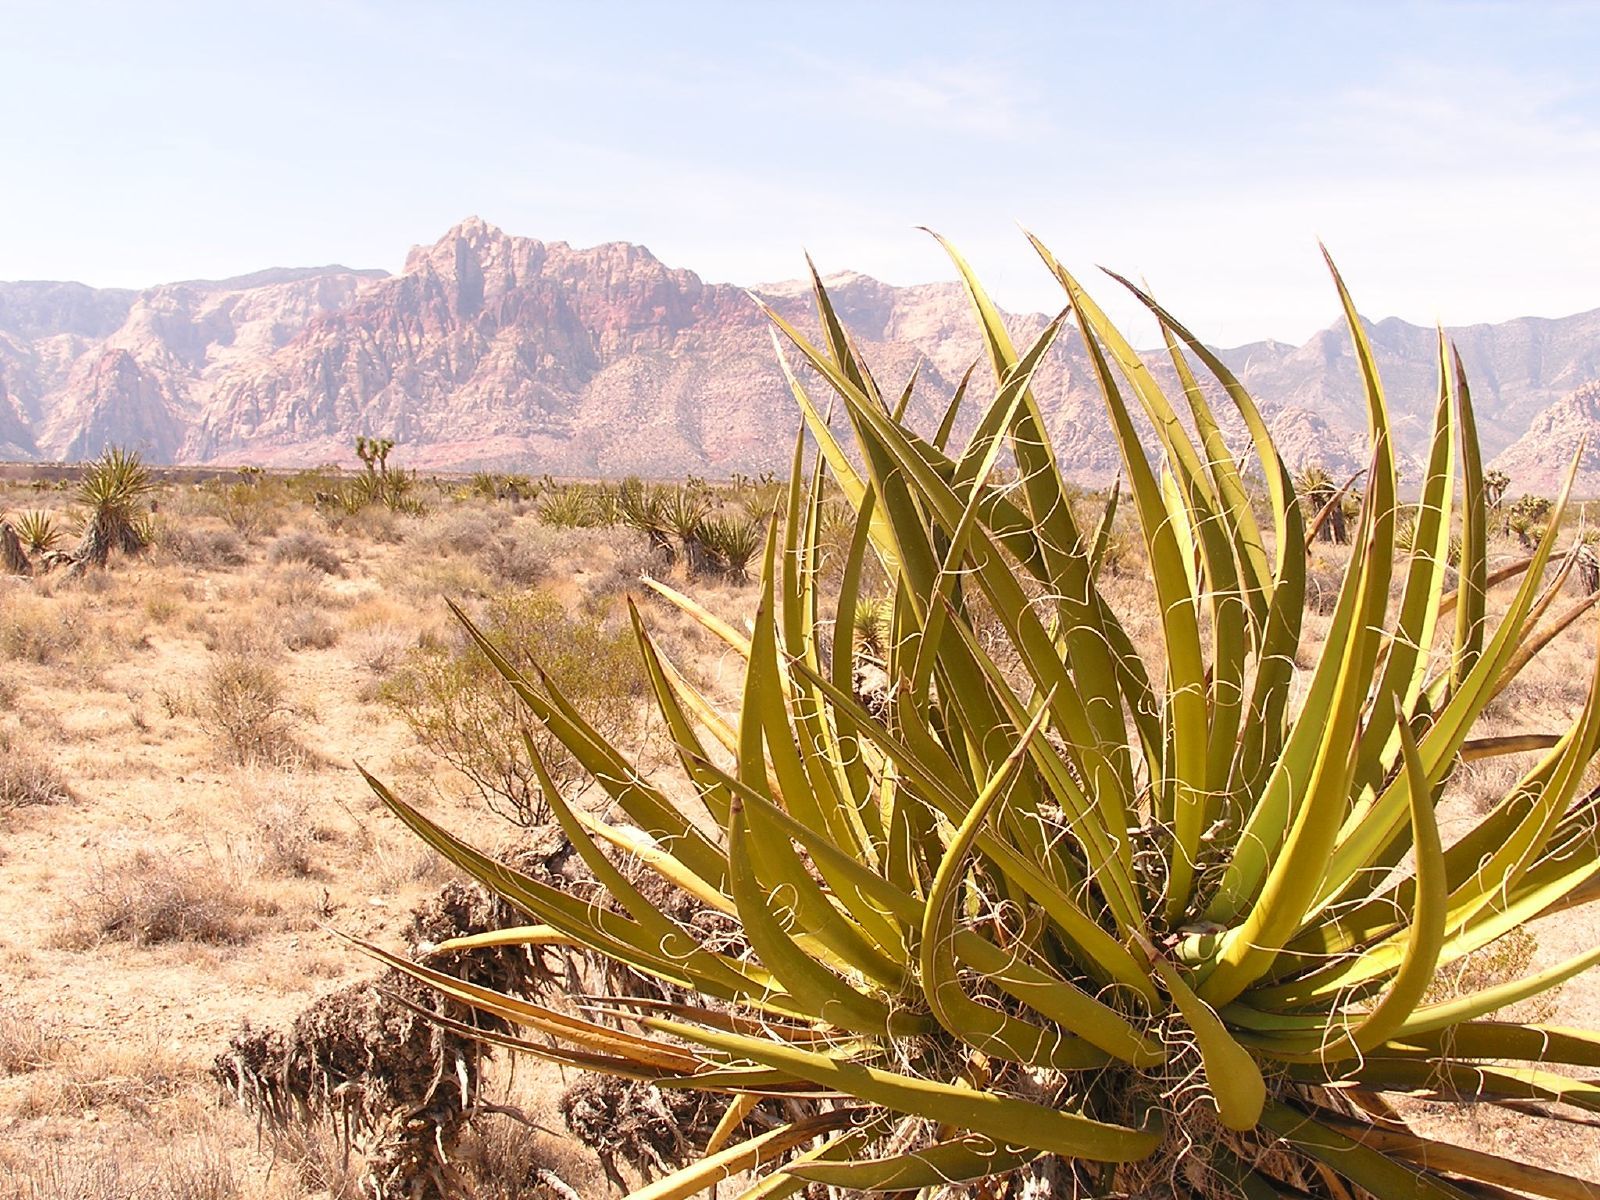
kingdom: Plantae
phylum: Tracheophyta
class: Liliopsida
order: Asparagales
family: Asparagaceae
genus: Yucca
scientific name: Yucca schidigera
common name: Mojave yucca
